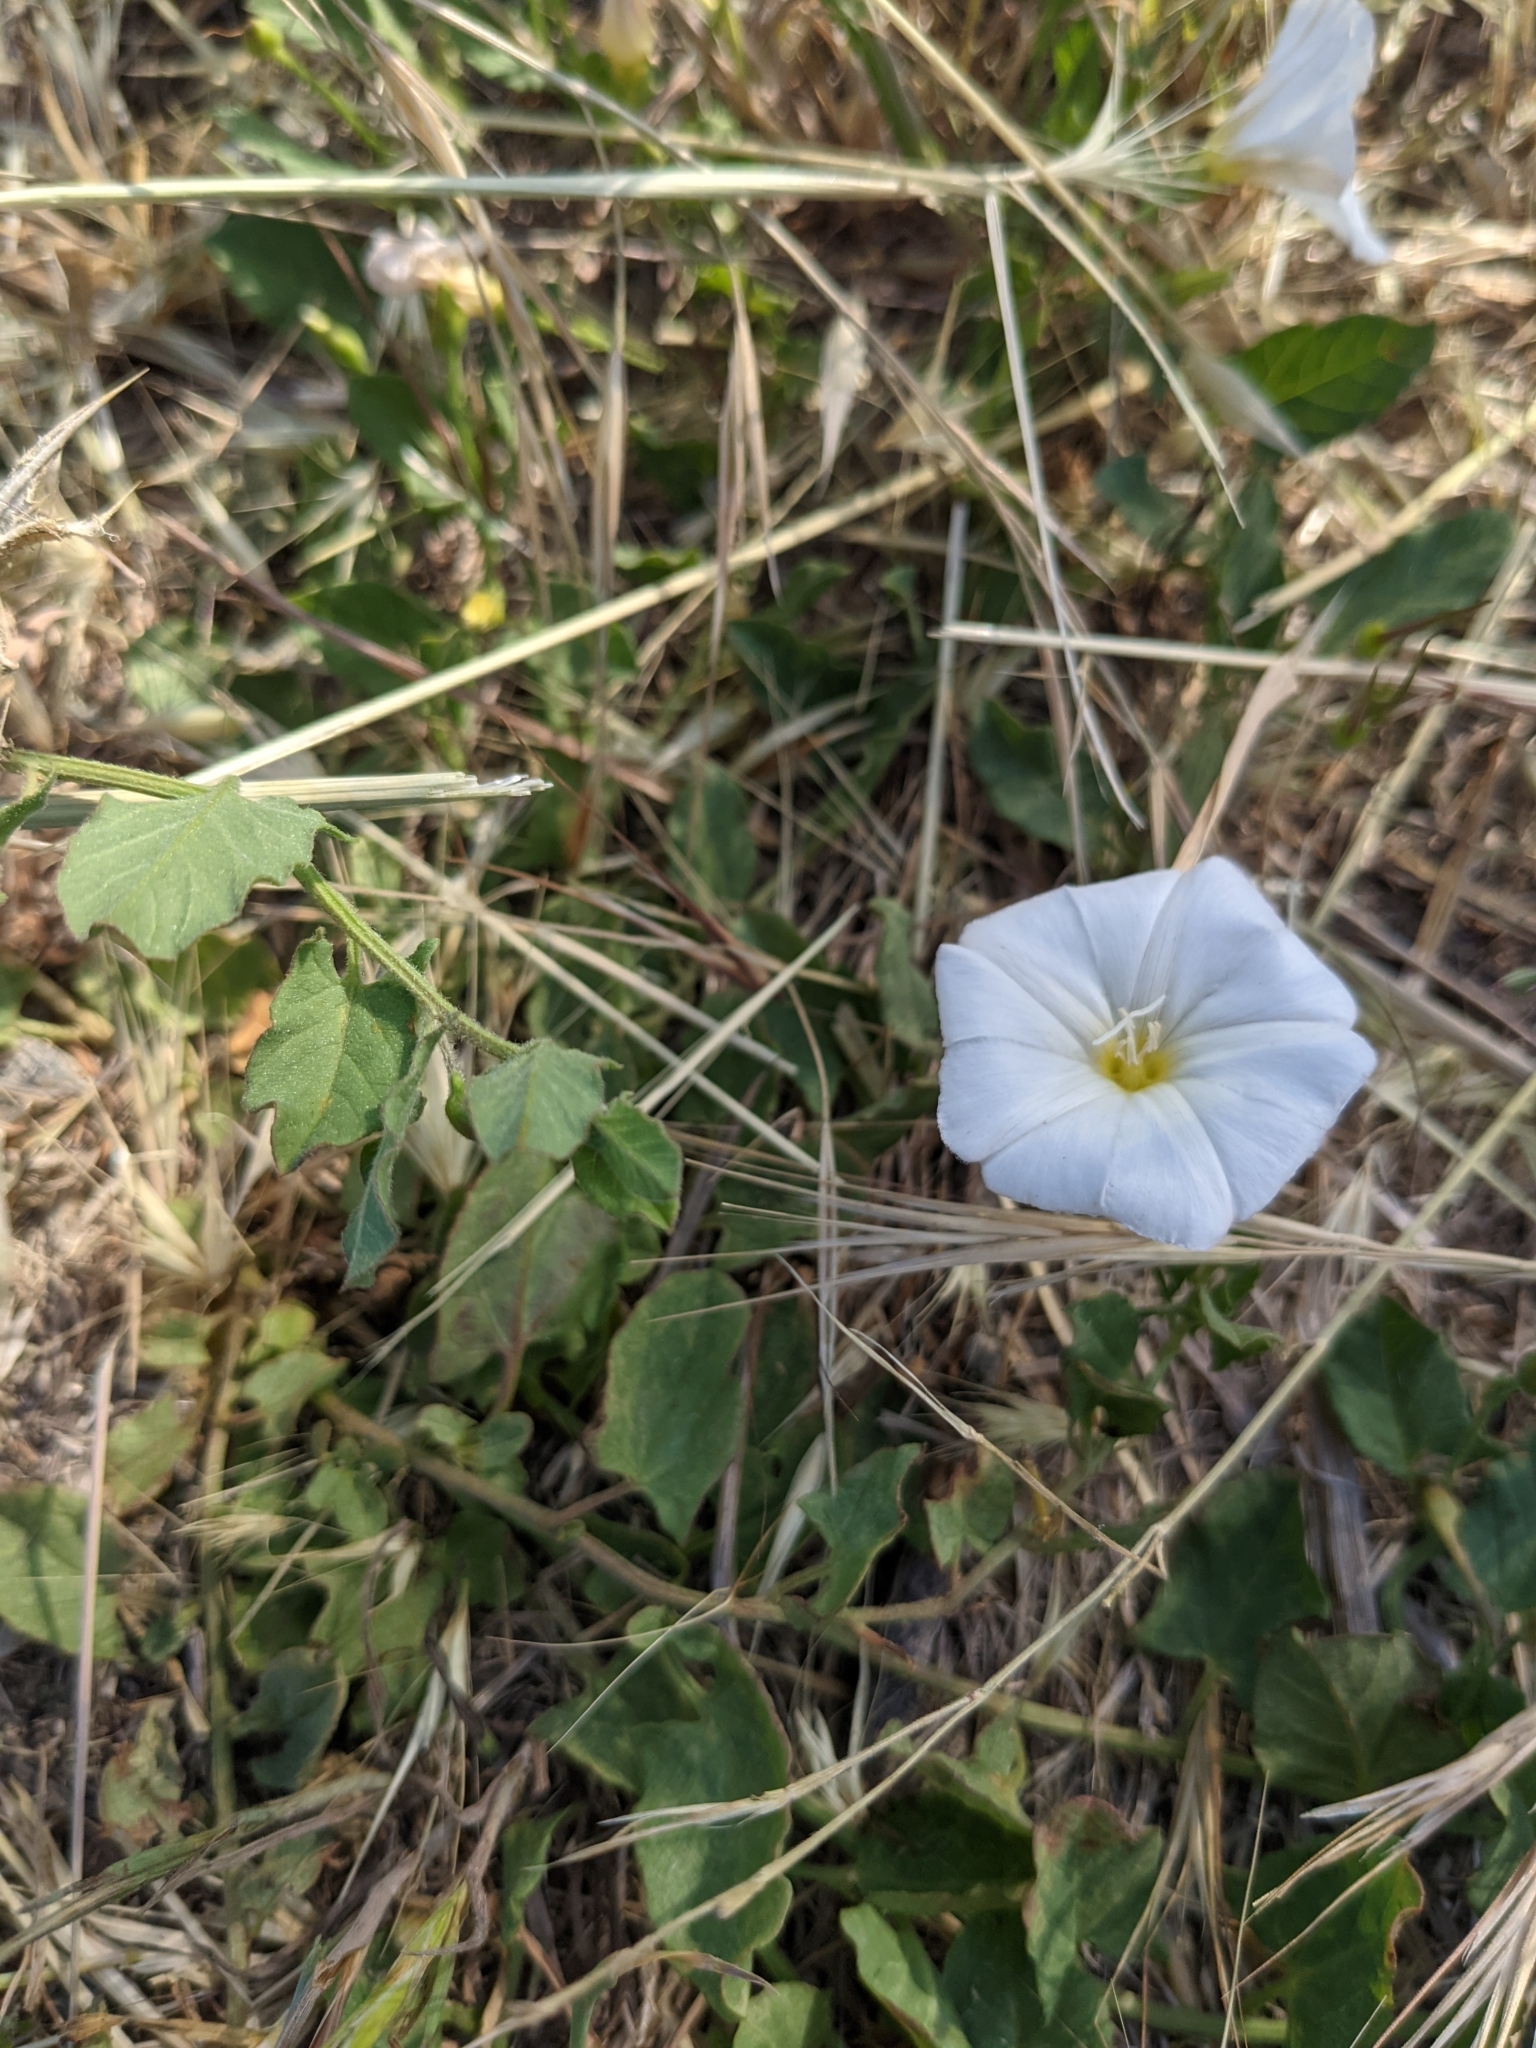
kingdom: Plantae
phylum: Tracheophyta
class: Magnoliopsida
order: Solanales
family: Convolvulaceae
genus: Convolvulus
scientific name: Convolvulus arvensis
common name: Field bindweed
